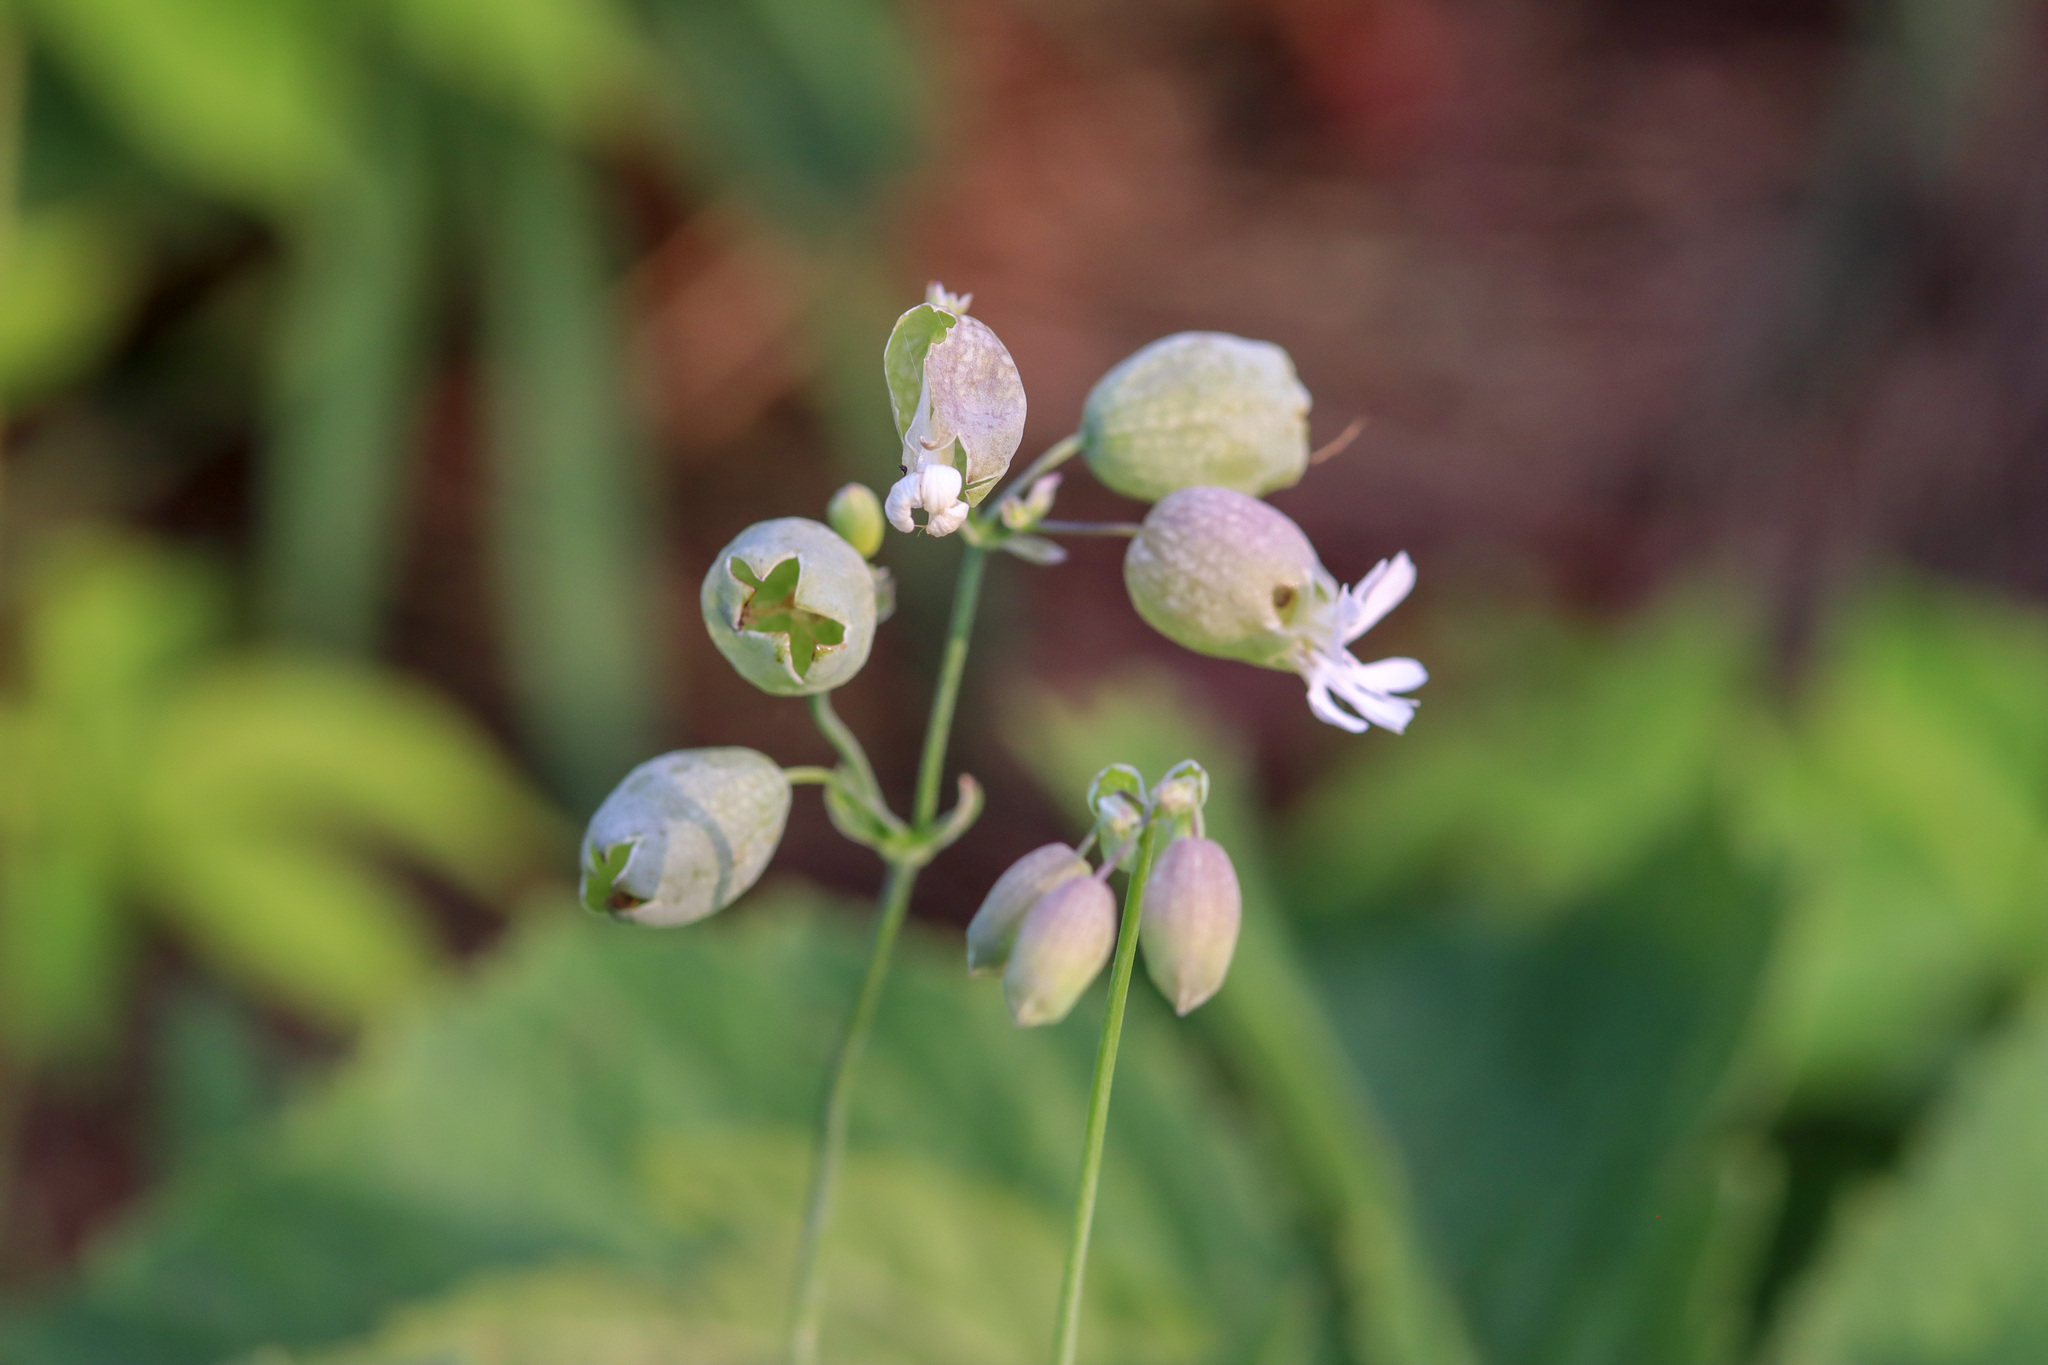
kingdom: Plantae
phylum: Tracheophyta
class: Magnoliopsida
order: Caryophyllales
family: Caryophyllaceae
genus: Silene
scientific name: Silene vulgaris
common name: Bladder campion
